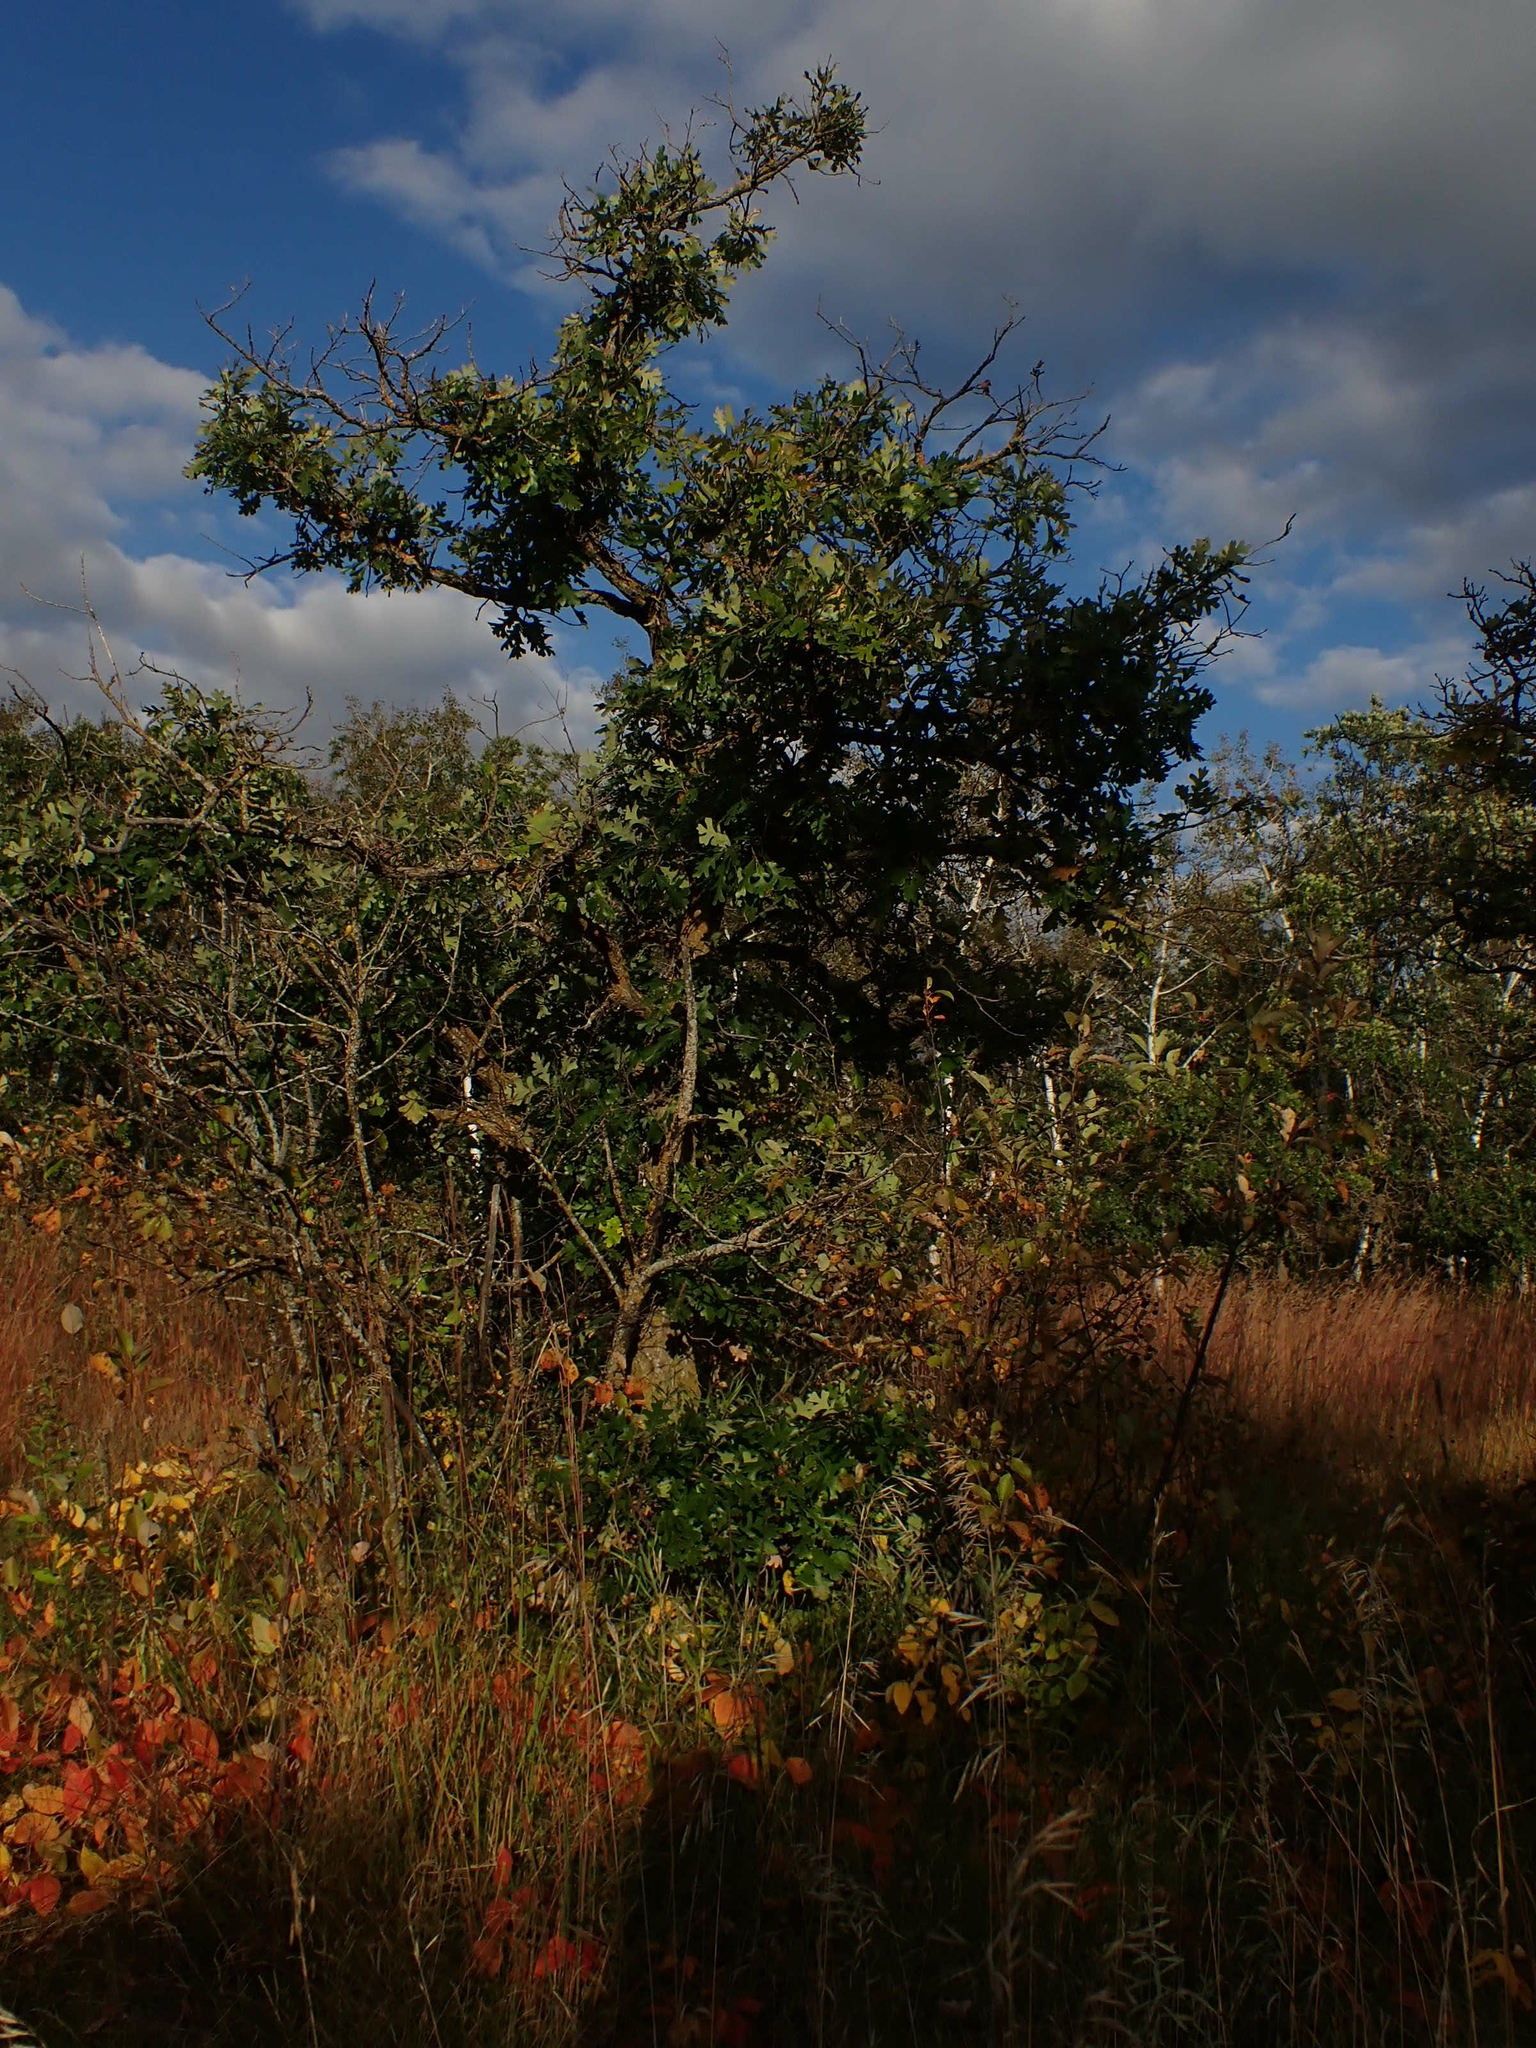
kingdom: Plantae
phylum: Tracheophyta
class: Magnoliopsida
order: Fagales
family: Fagaceae
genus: Quercus
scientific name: Quercus macrocarpa
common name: Bur oak
